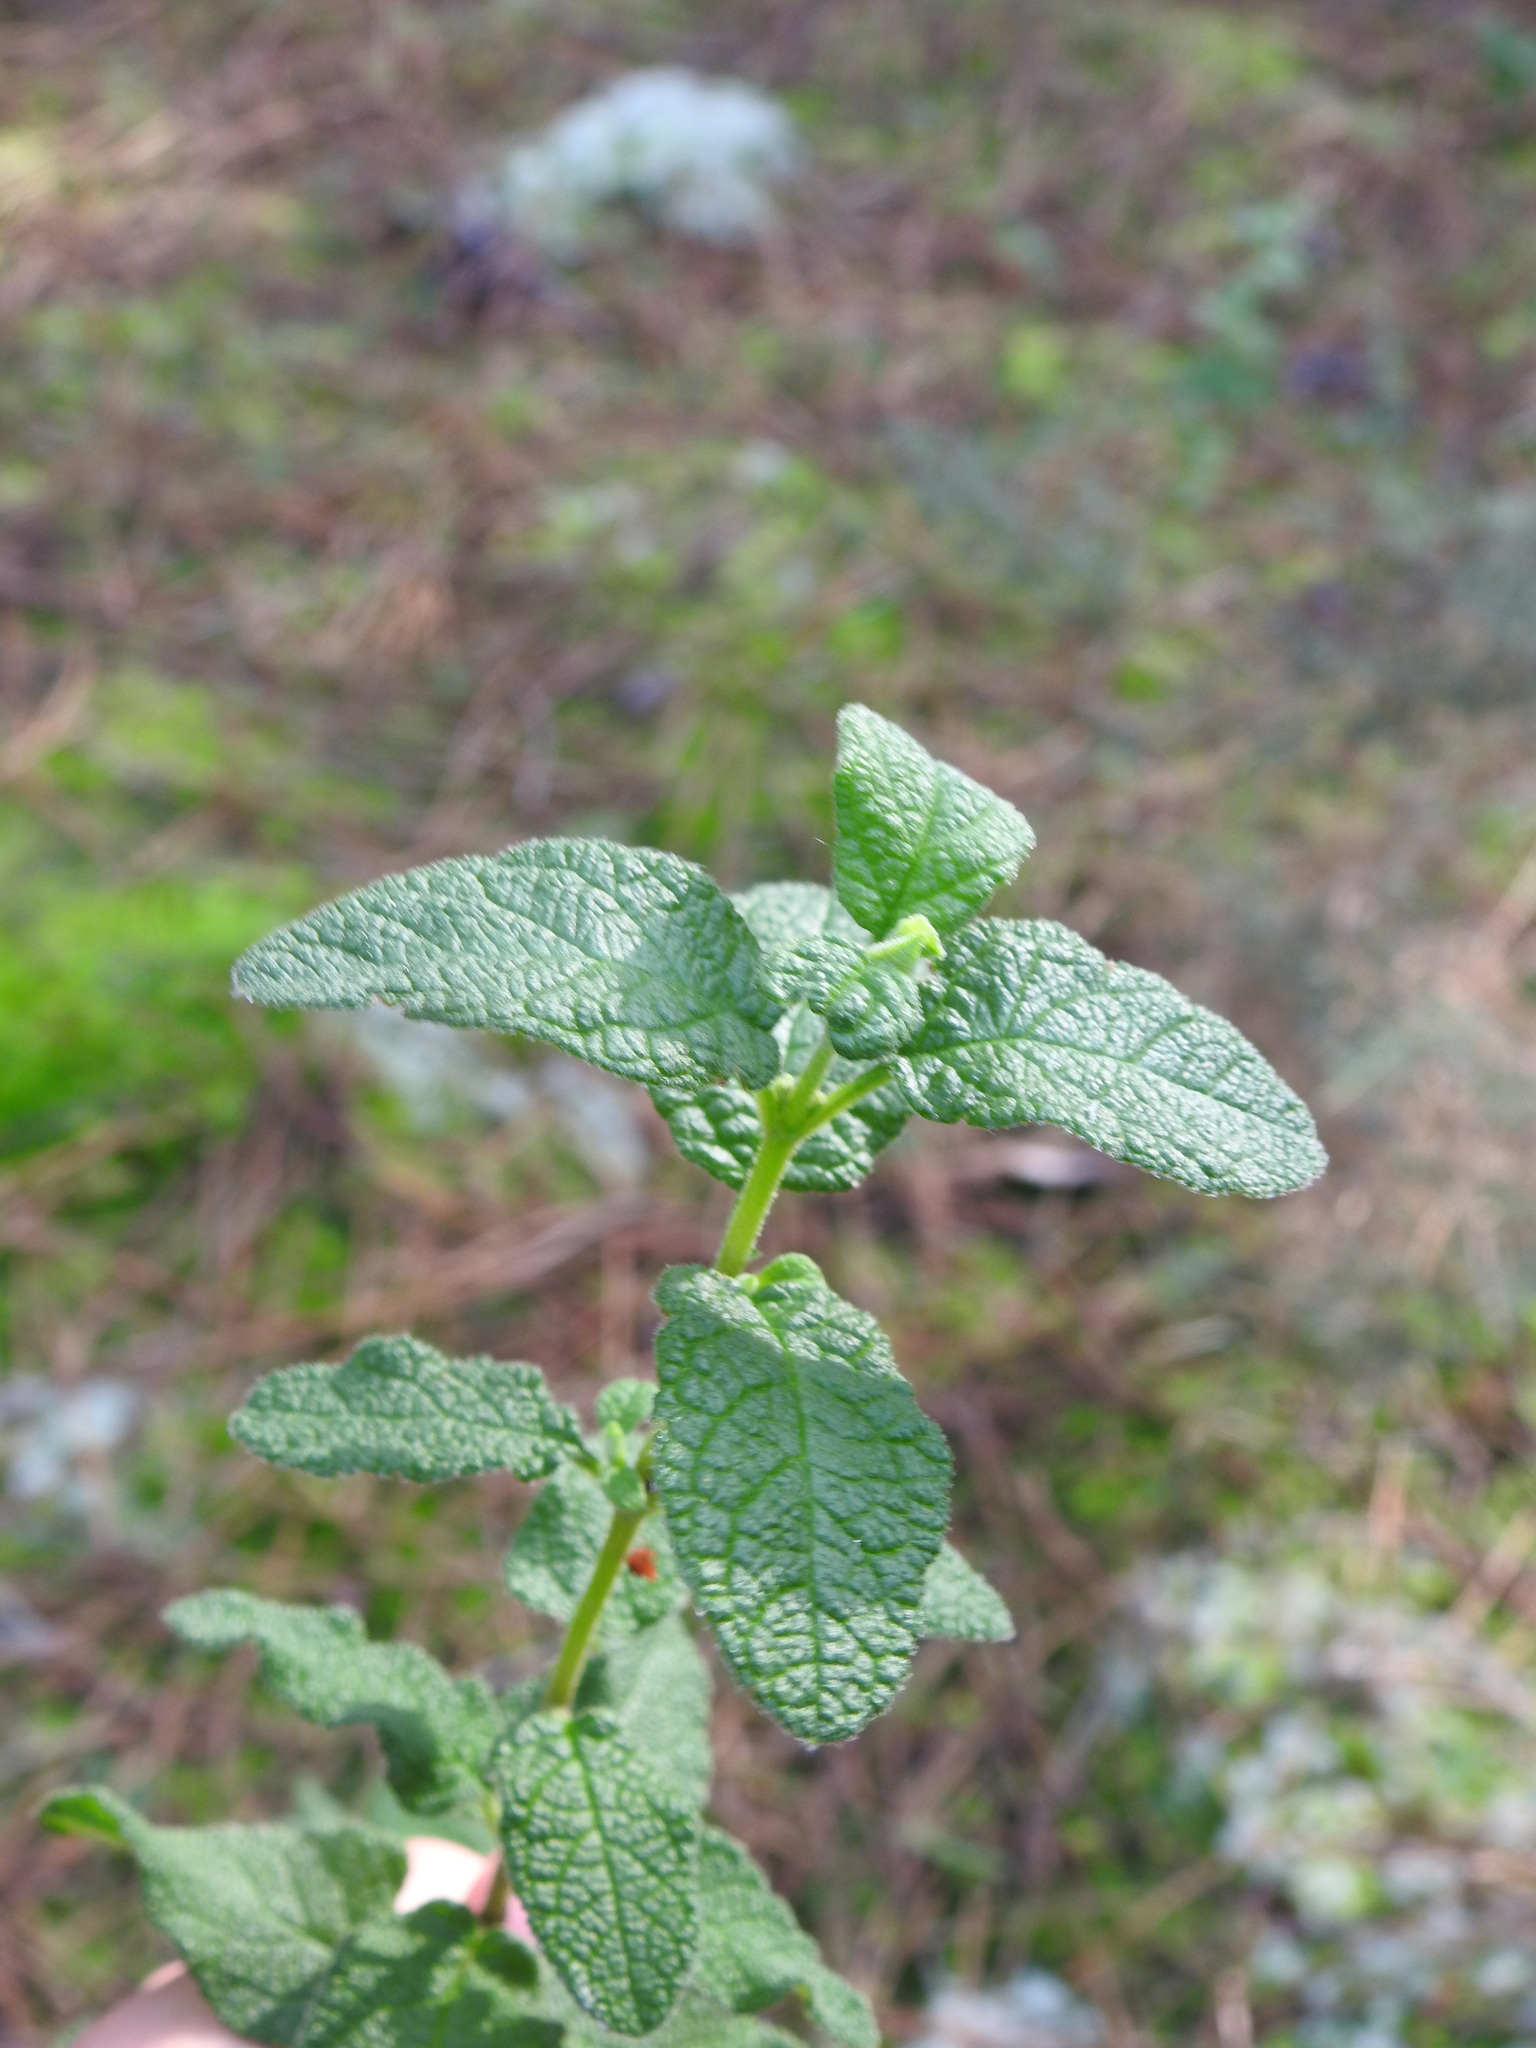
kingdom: Plantae
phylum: Tracheophyta
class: Magnoliopsida
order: Malvales
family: Cistaceae
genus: Cistus
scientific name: Cistus salviifolius
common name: Salvia cistus
